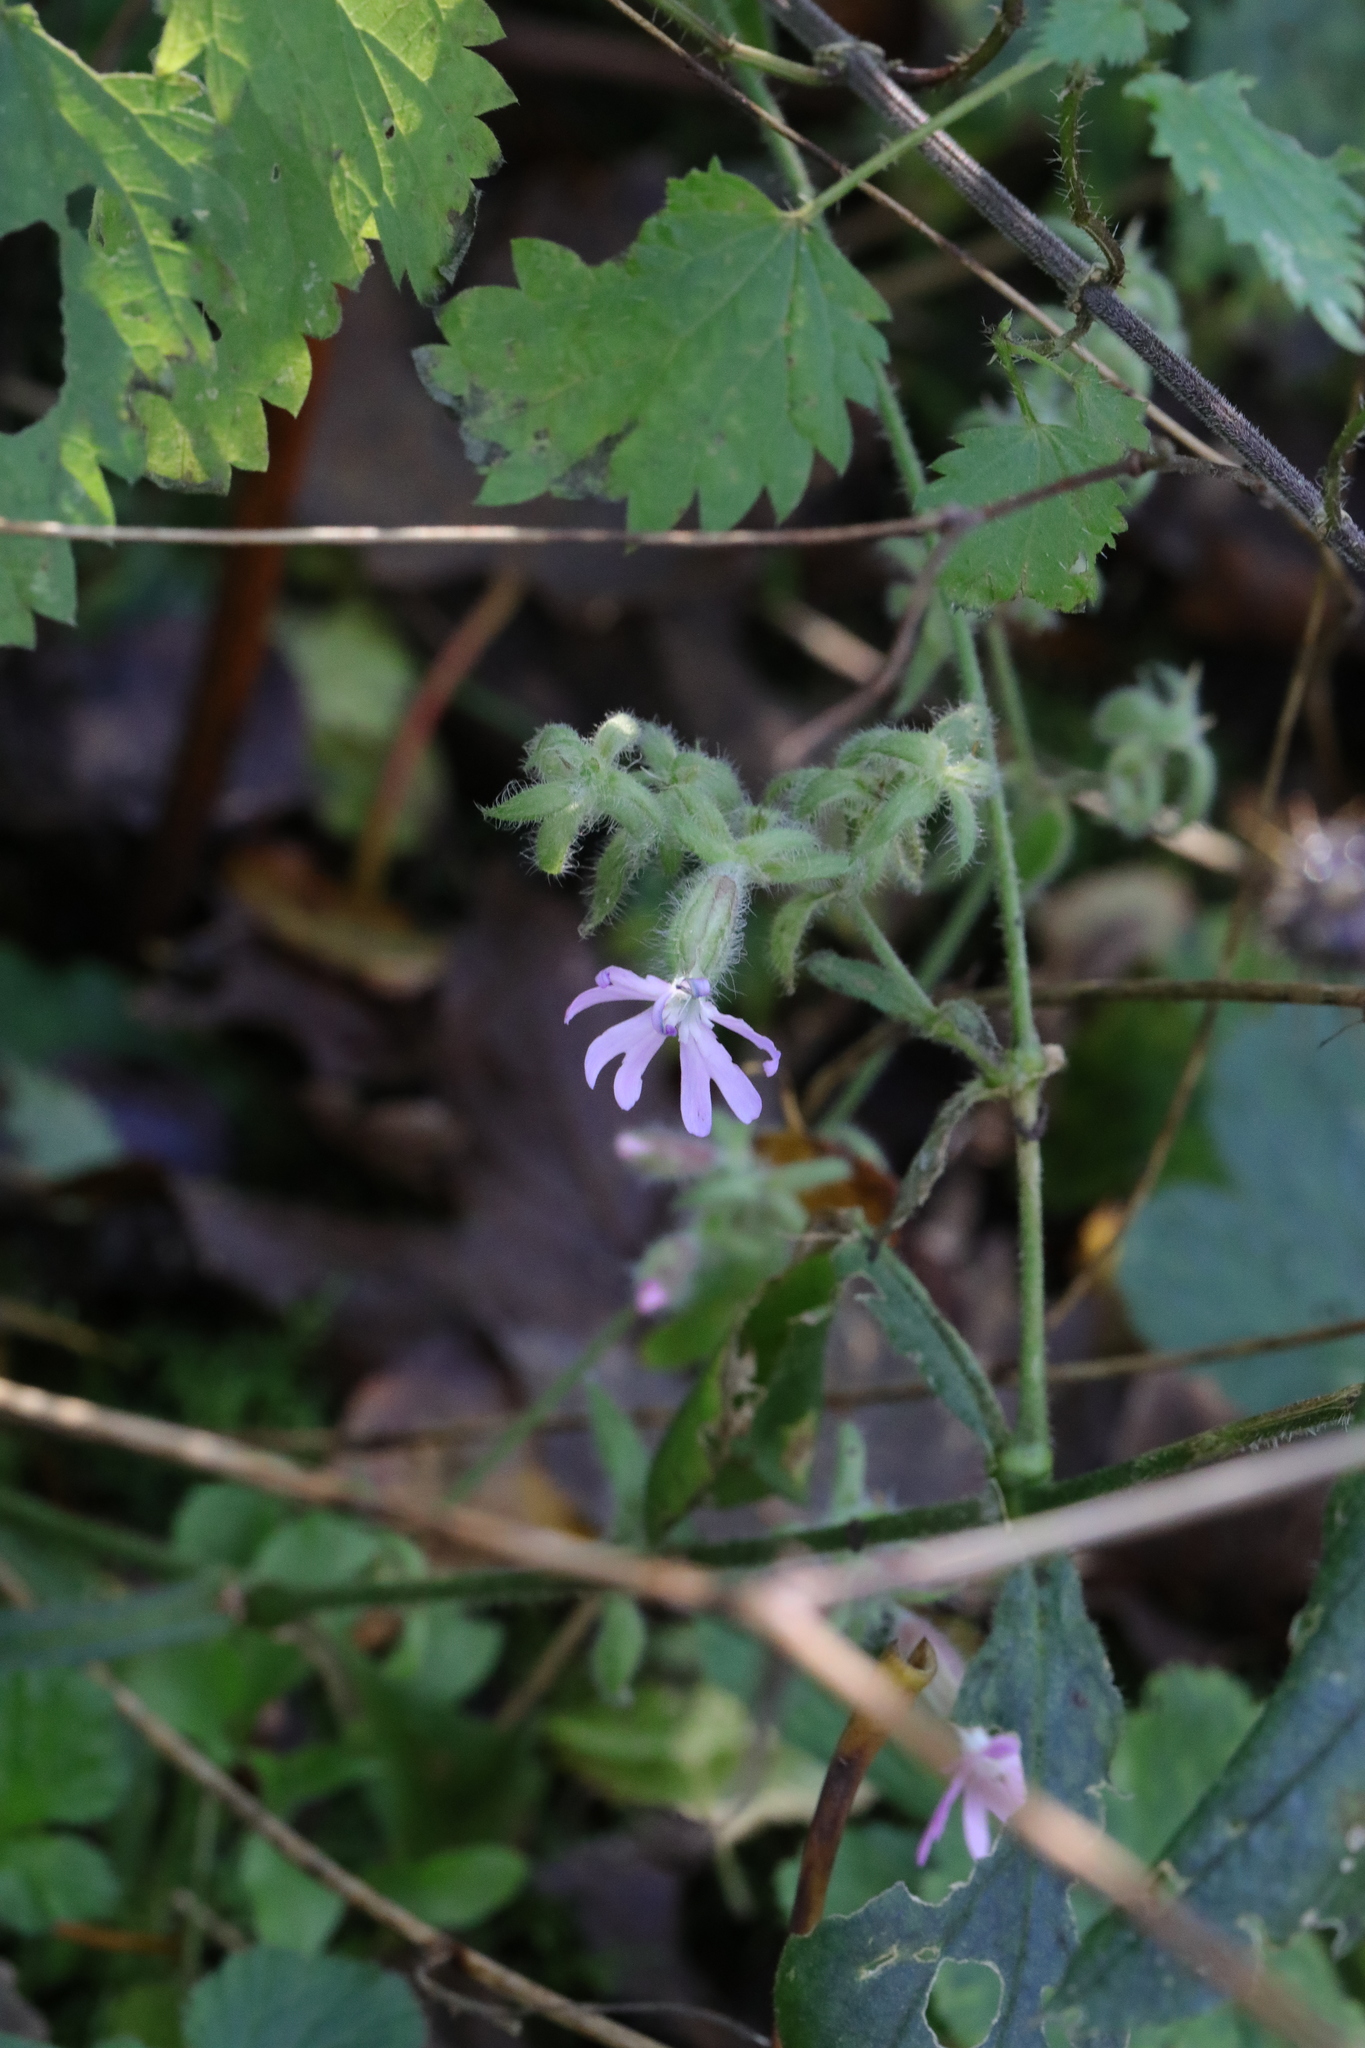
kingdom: Plantae
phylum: Tracheophyta
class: Magnoliopsida
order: Caryophyllales
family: Caryophyllaceae
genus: Silene
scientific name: Silene dioica
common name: Red campion
